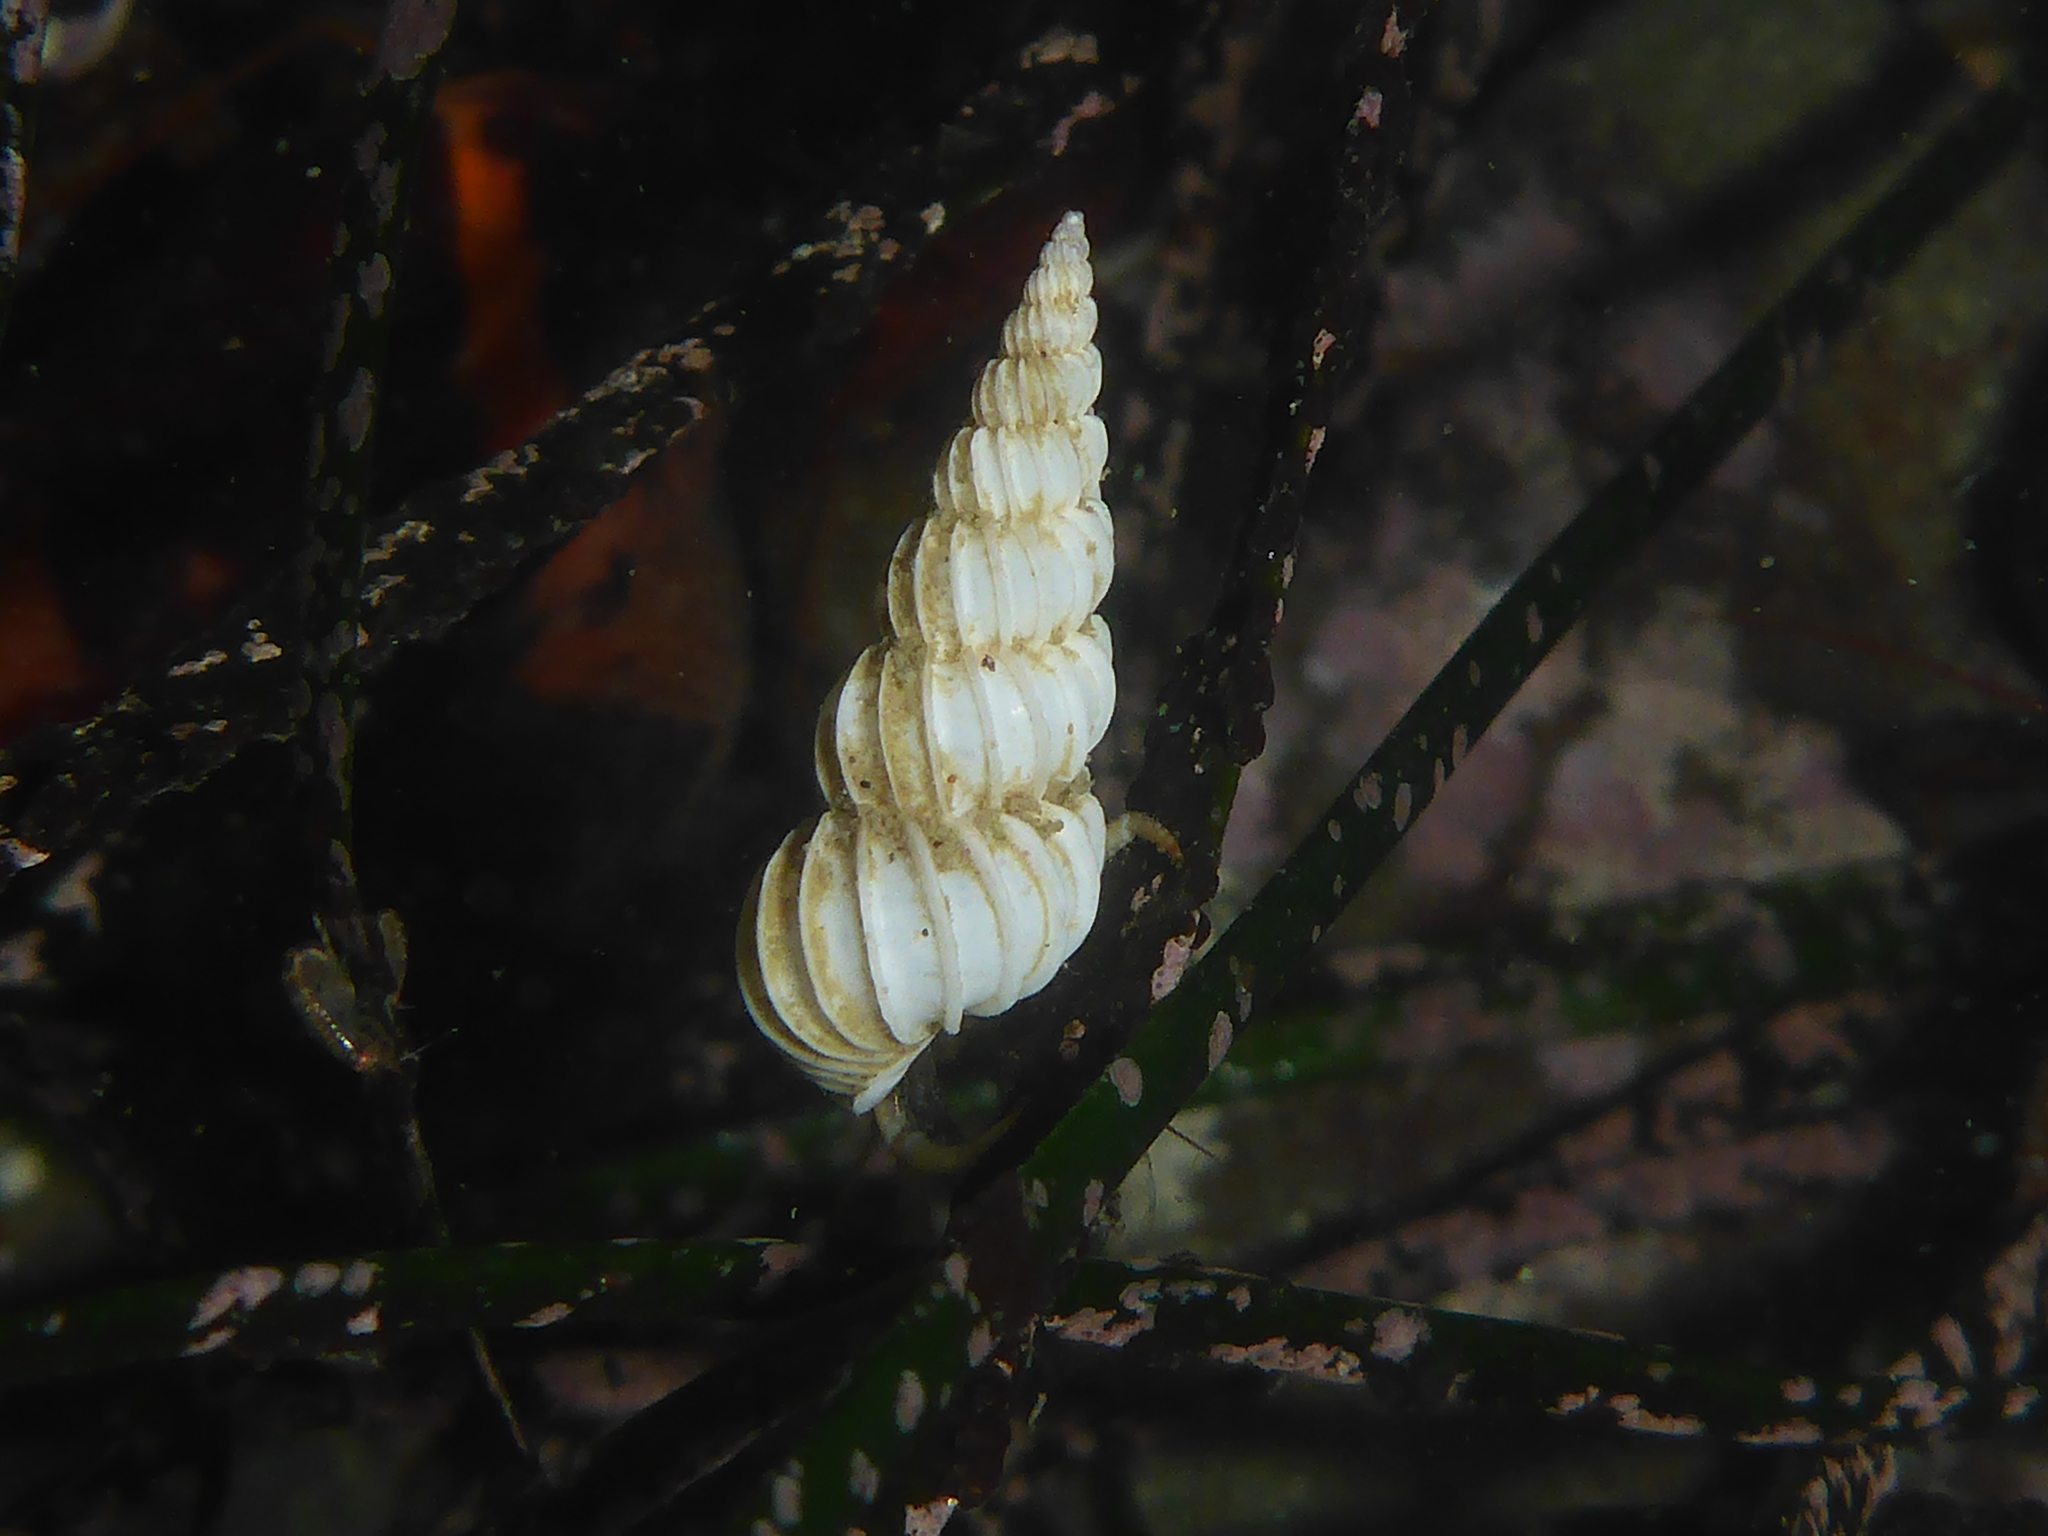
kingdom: Animalia
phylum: Mollusca
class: Gastropoda
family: Epitoniidae
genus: Epitonium
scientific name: Epitonium tinctum
